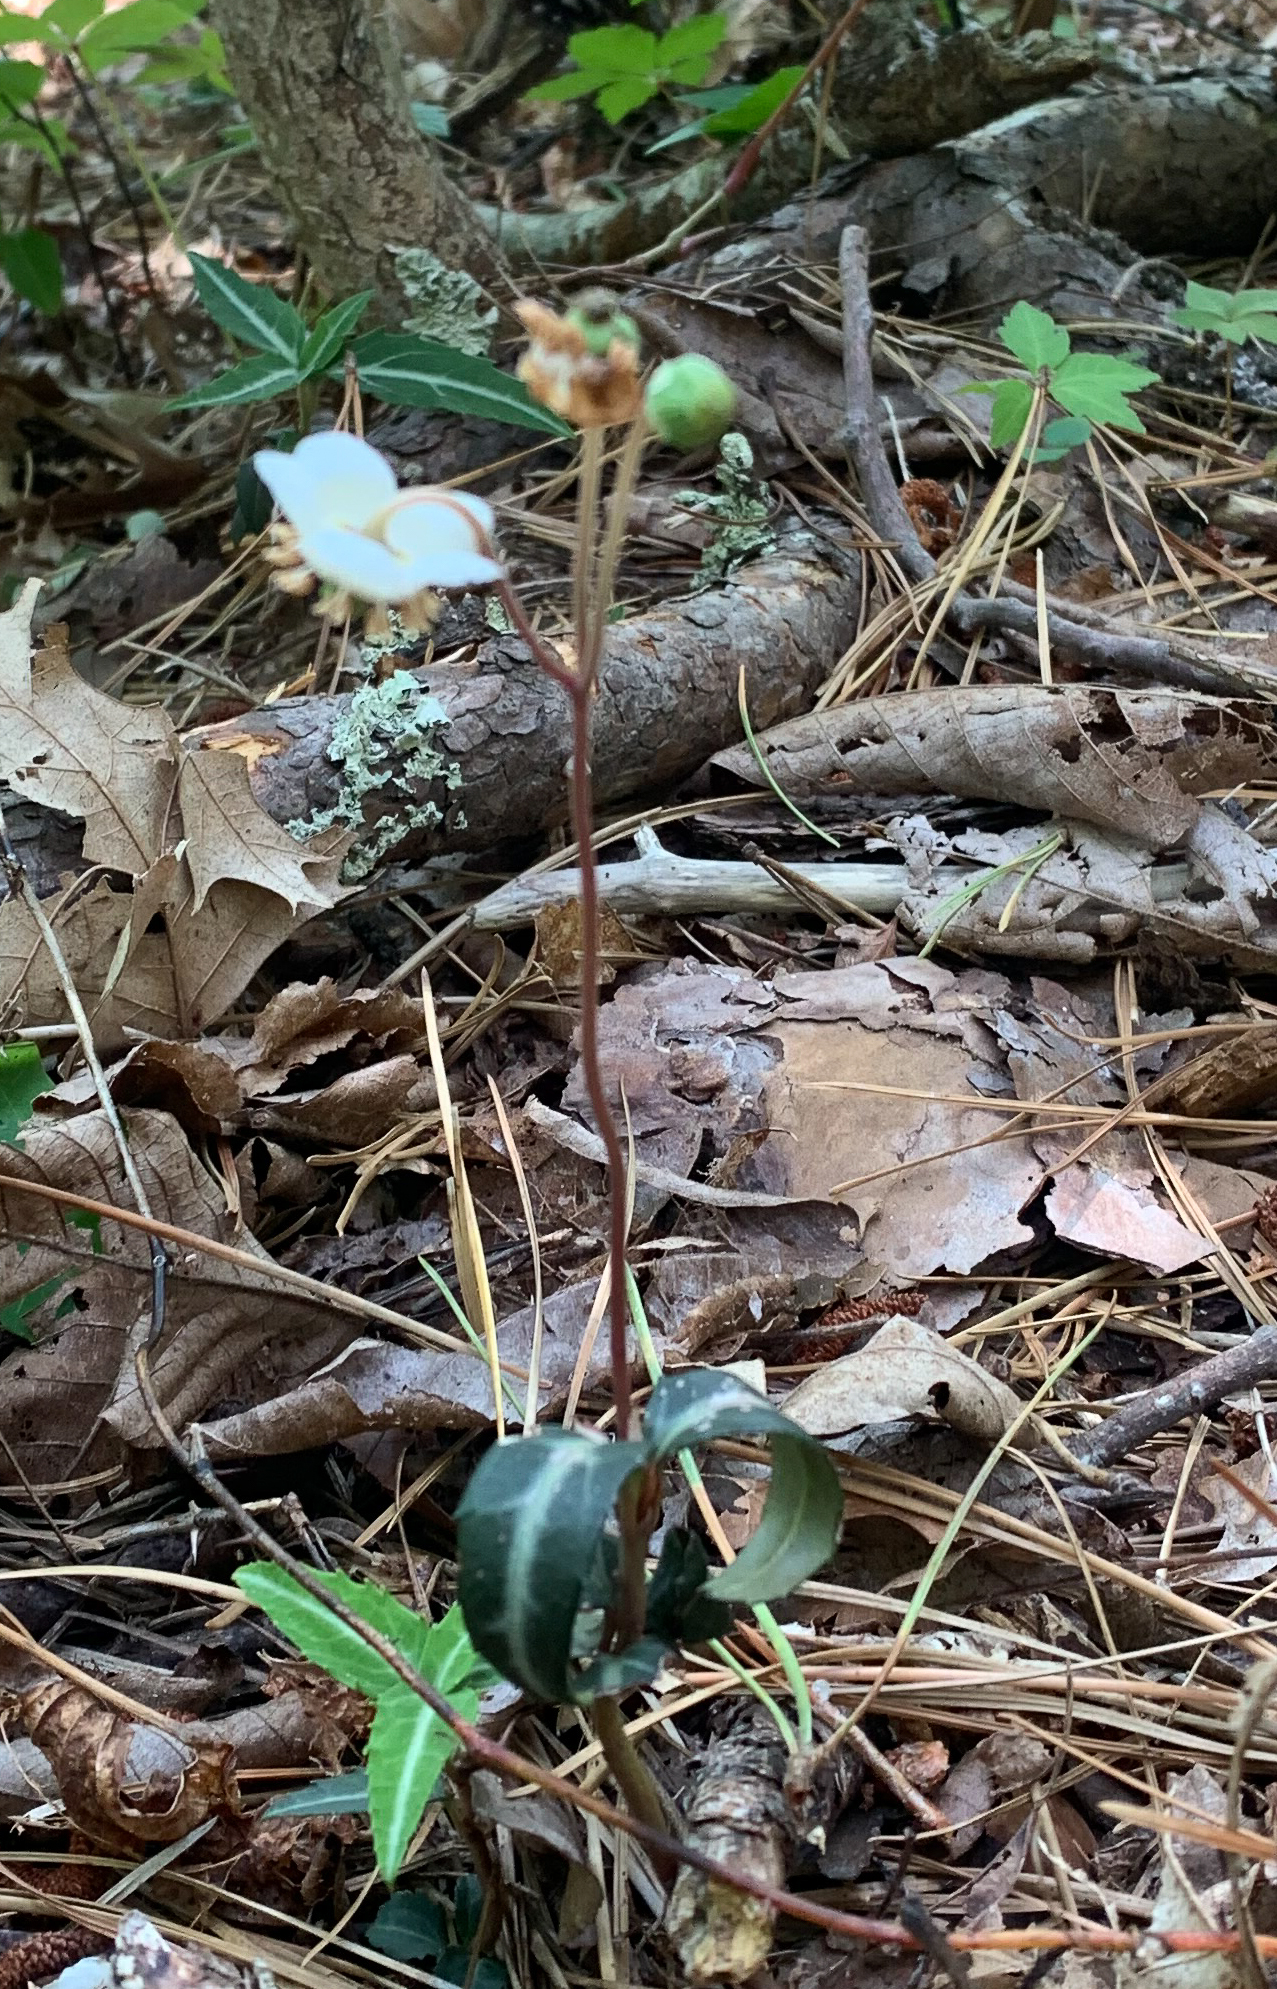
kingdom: Plantae
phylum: Tracheophyta
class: Magnoliopsida
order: Ericales
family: Ericaceae
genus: Chimaphila
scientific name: Chimaphila maculata
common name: Spotted pipsissewa
